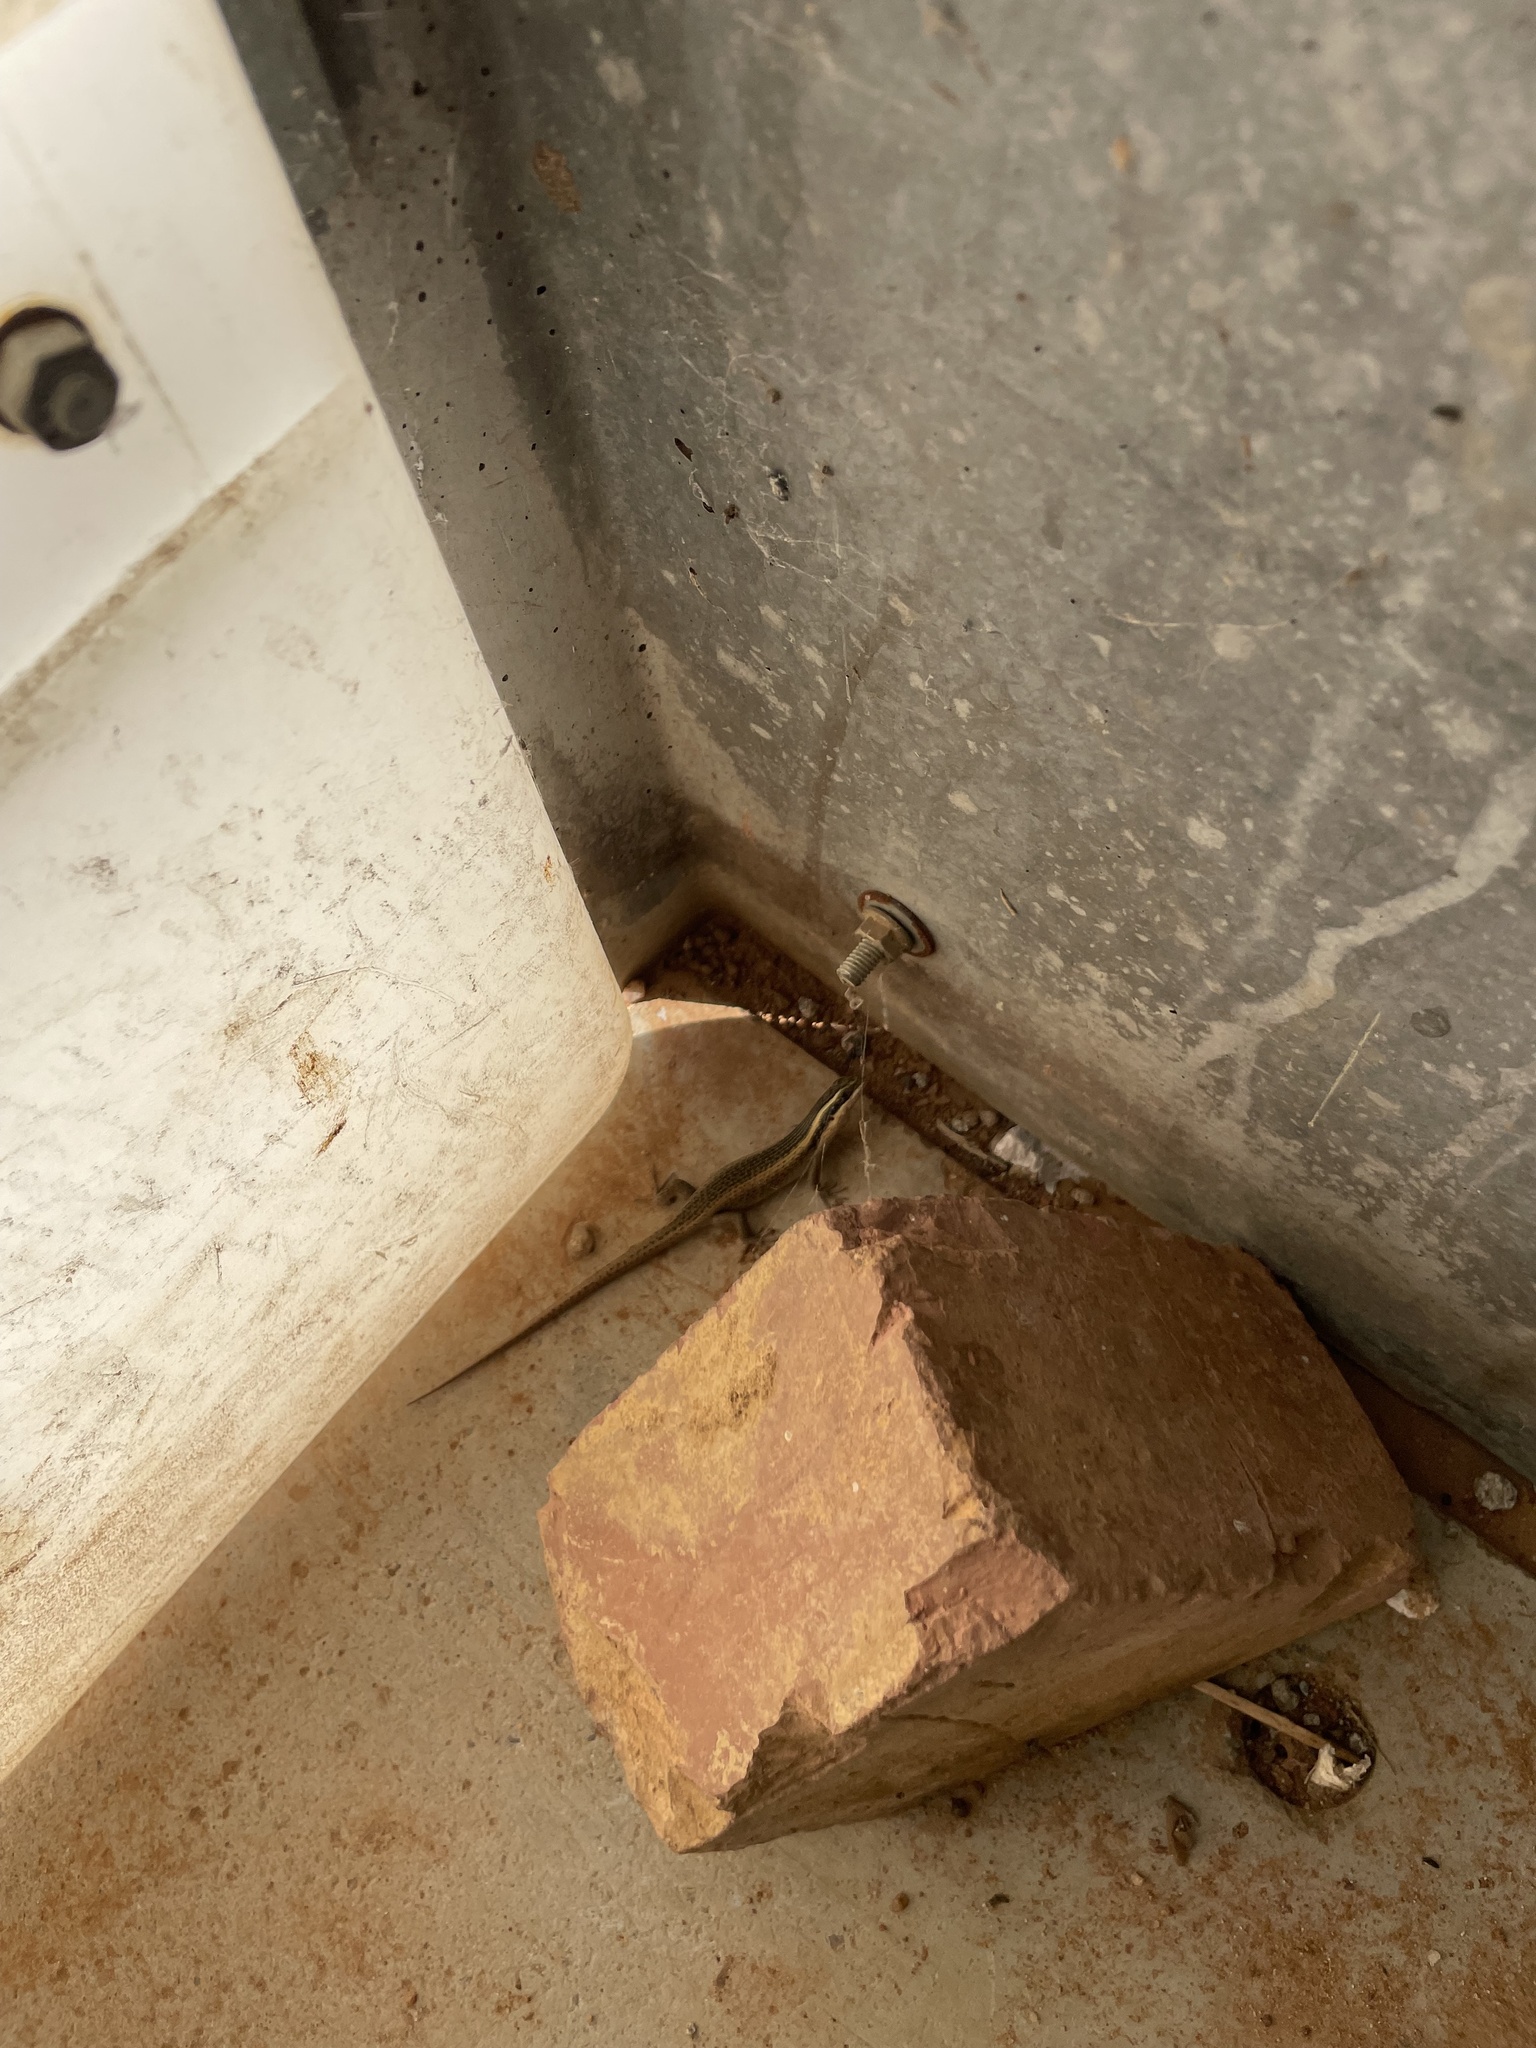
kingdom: Animalia
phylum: Chordata
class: Squamata
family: Scincidae
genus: Trachylepis
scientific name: Trachylepis punctatissima
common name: Montane speckled skink
